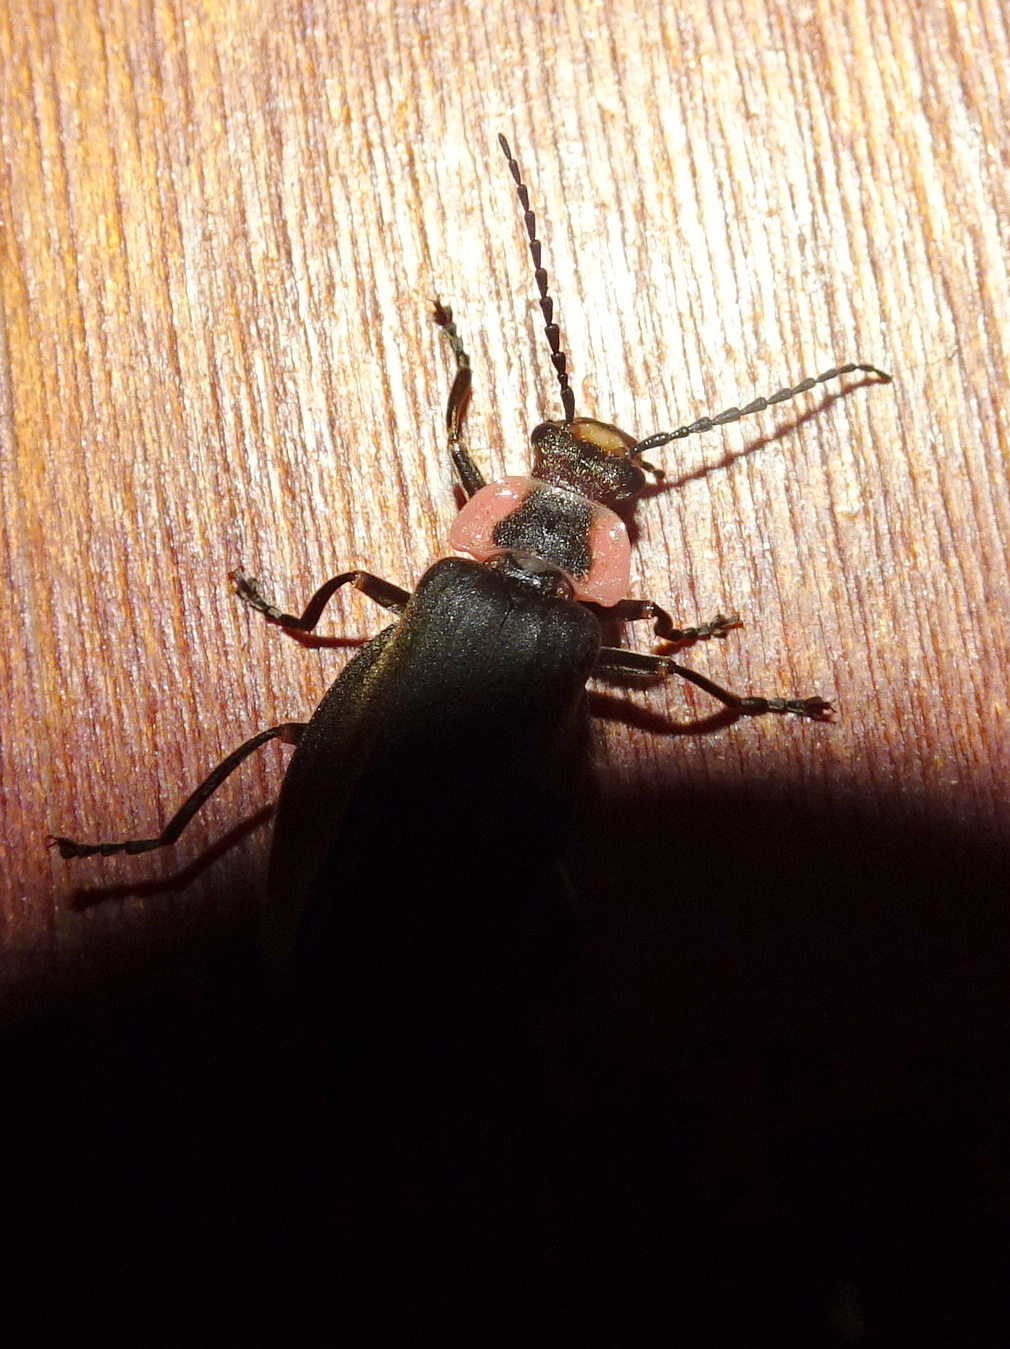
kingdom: Animalia
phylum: Arthropoda
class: Insecta
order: Coleoptera
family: Cantharidae
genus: Podabrus
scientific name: Podabrus tricostatus
